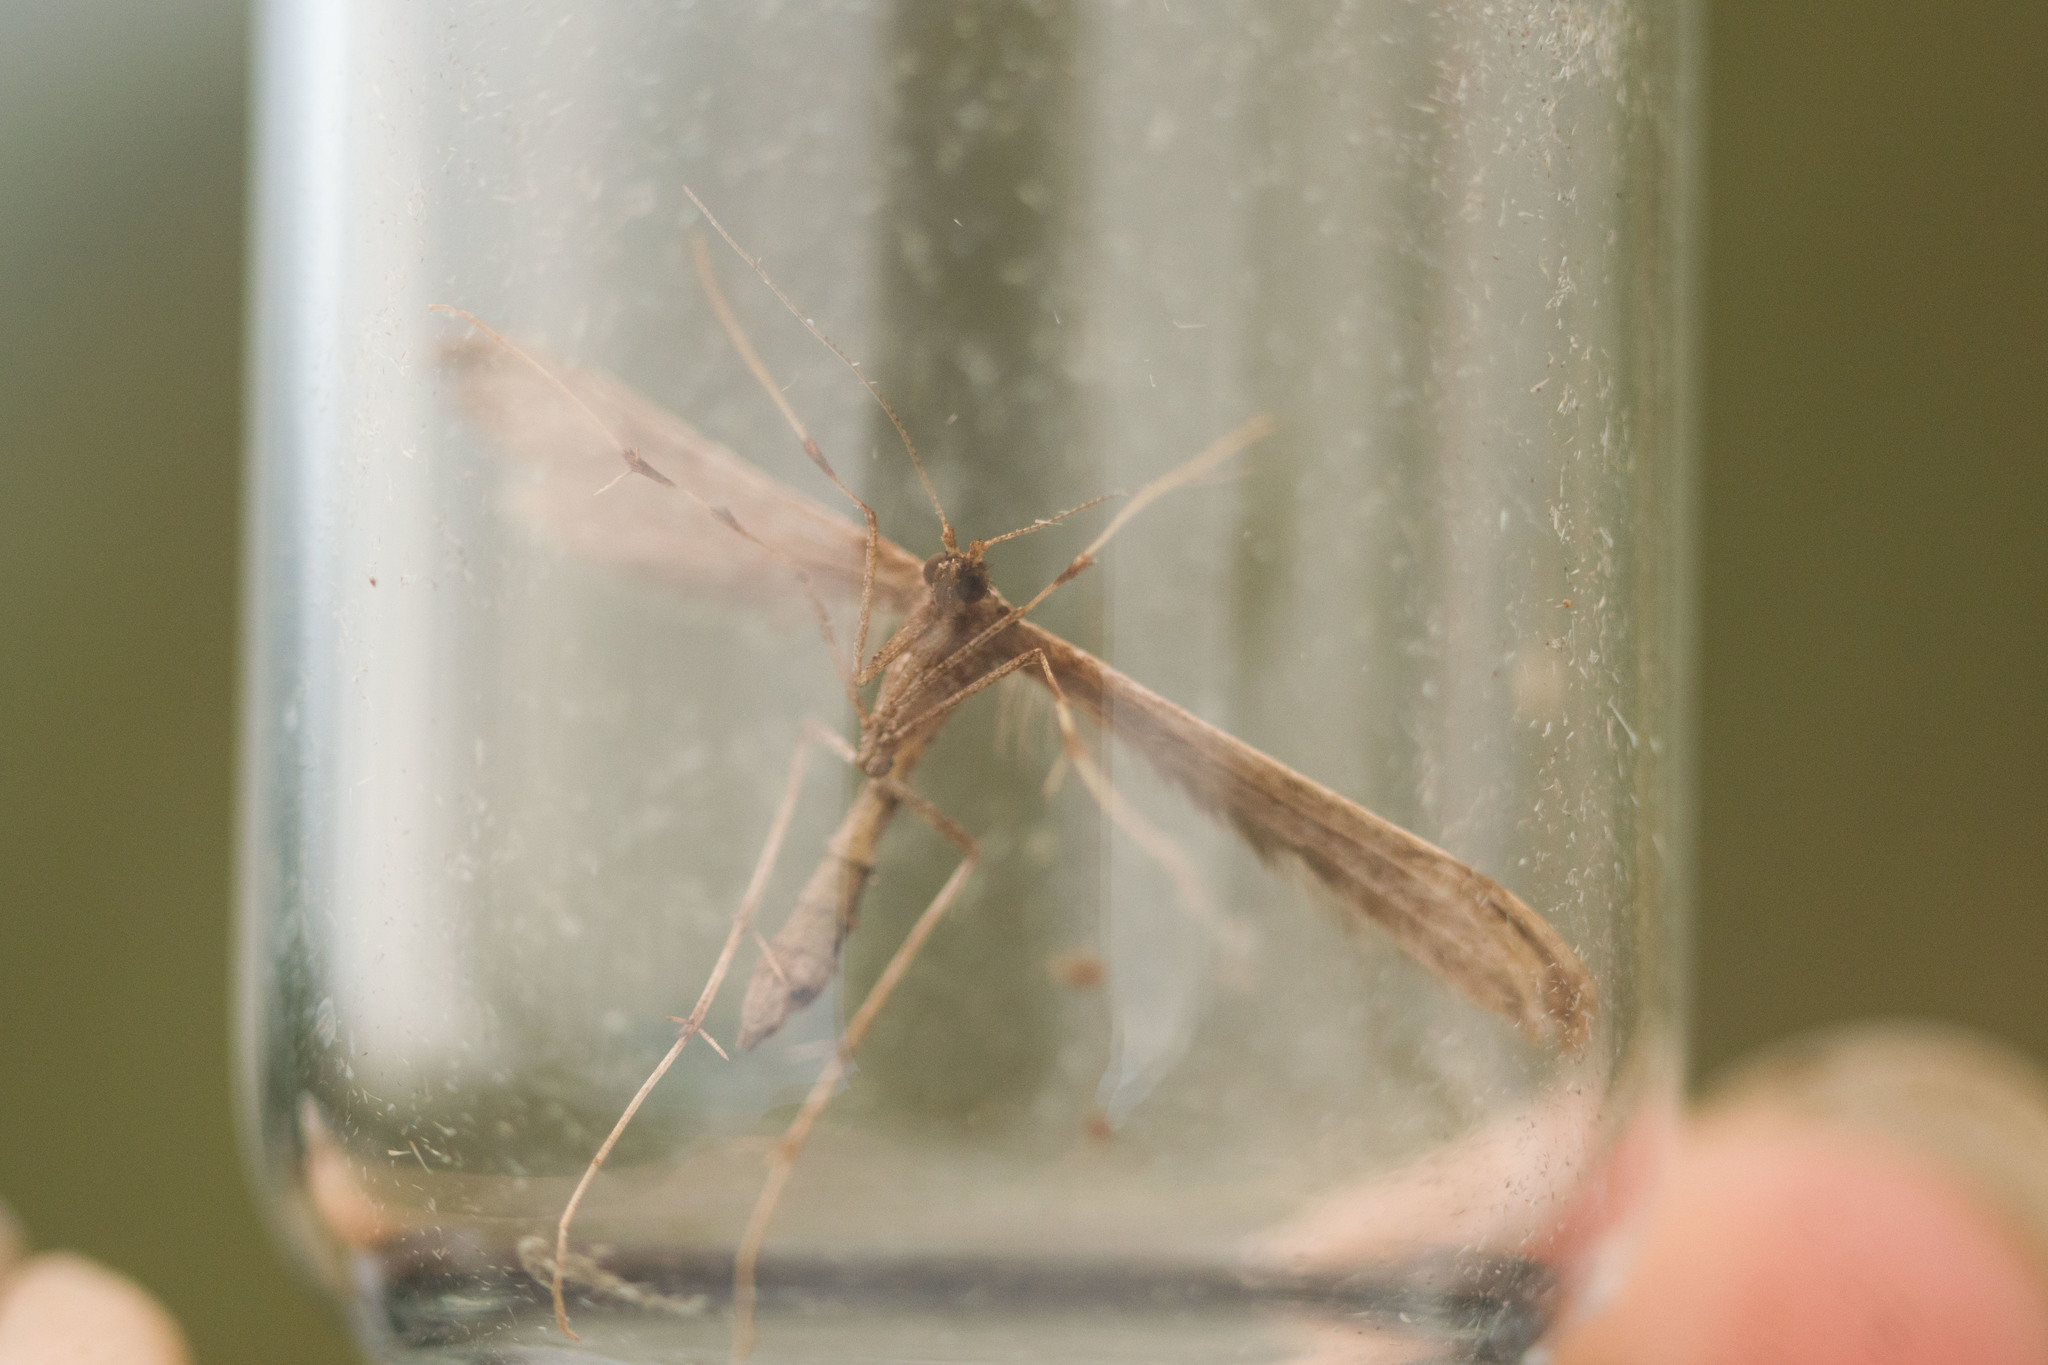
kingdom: Animalia
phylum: Arthropoda
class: Insecta
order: Lepidoptera
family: Pterophoridae
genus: Hellinsia
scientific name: Hellinsia beneficus
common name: Moth
